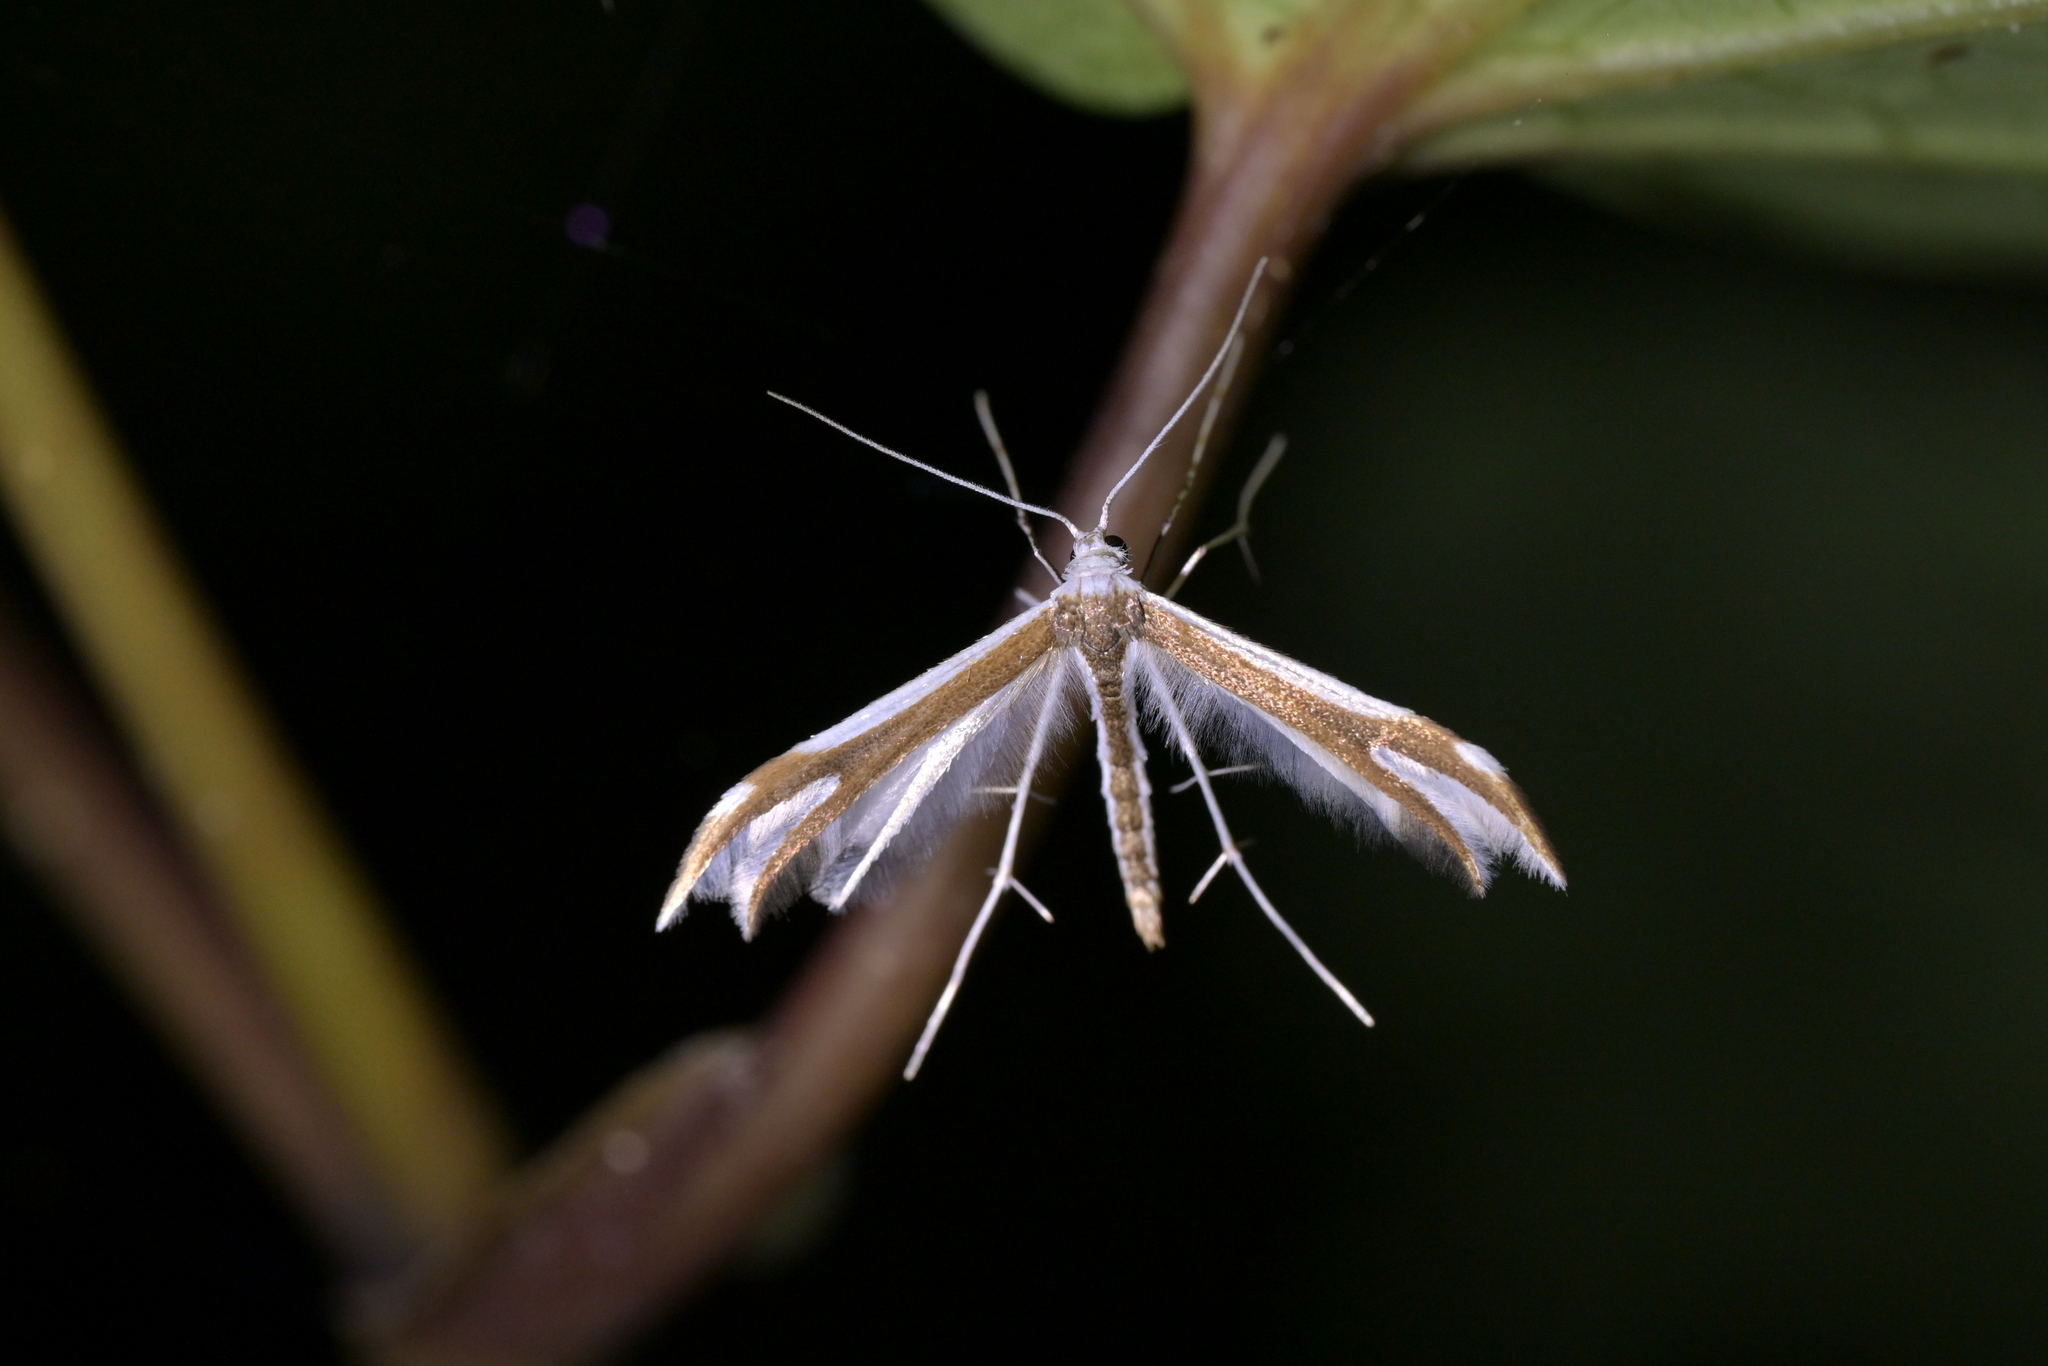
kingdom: Animalia
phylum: Arthropoda
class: Insecta
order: Lepidoptera
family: Pterophoridae
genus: Pterophorus
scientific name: Pterophorus furcatalis
